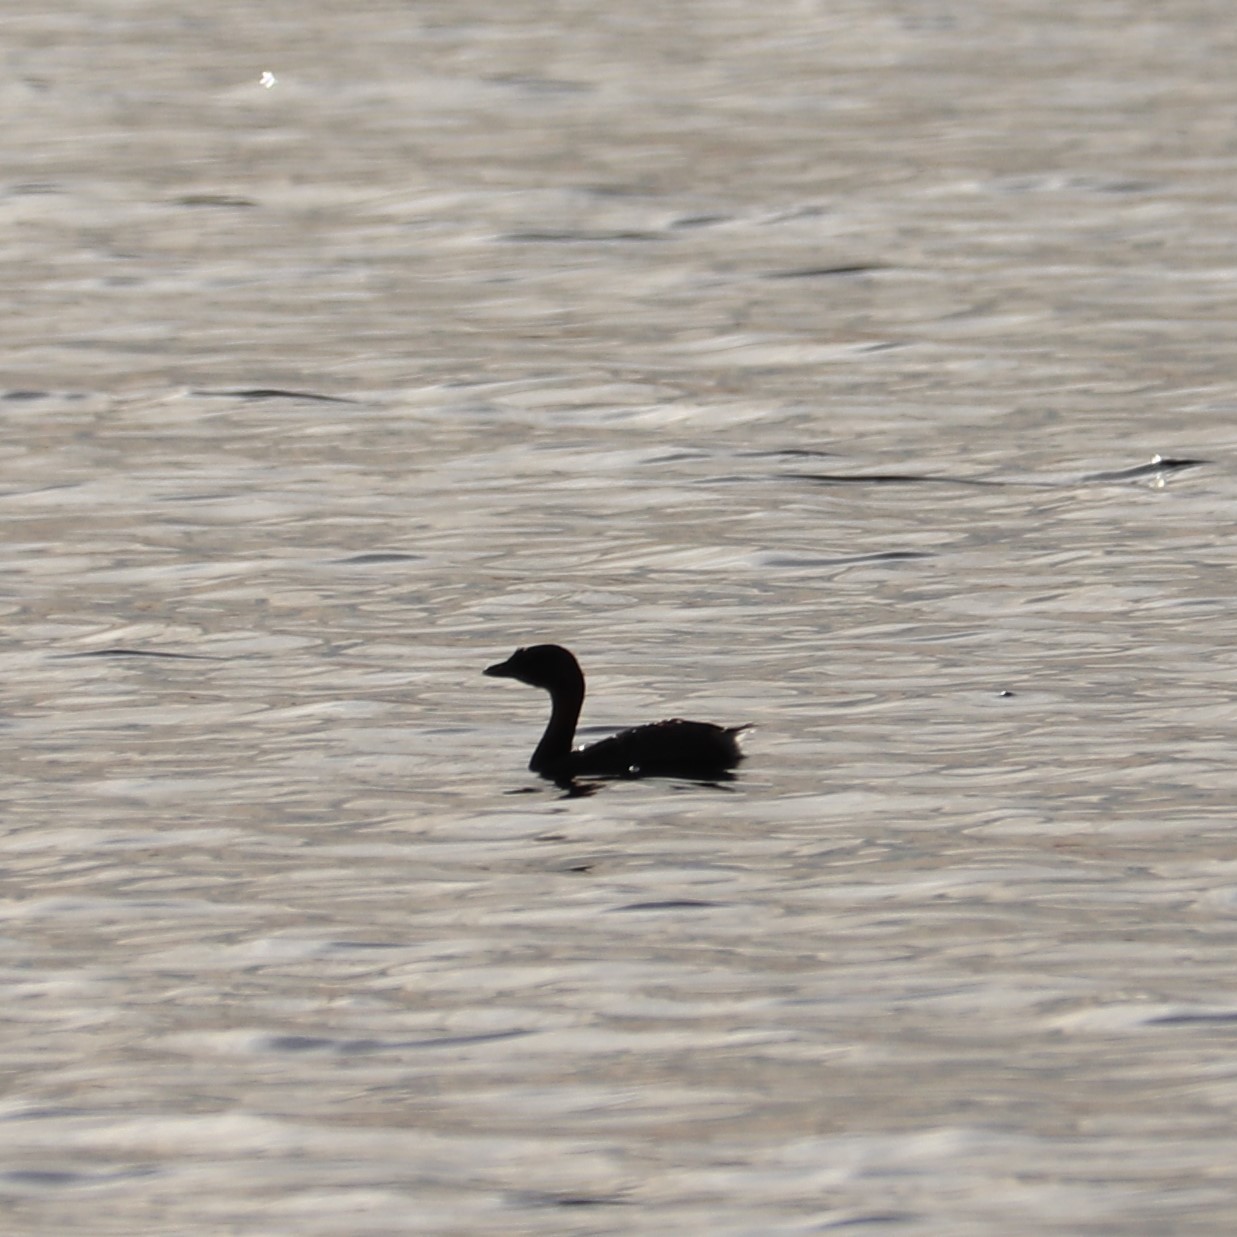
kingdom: Animalia
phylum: Chordata
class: Aves
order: Podicipediformes
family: Podicipedidae
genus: Podilymbus
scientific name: Podilymbus podiceps
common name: Pied-billed grebe
